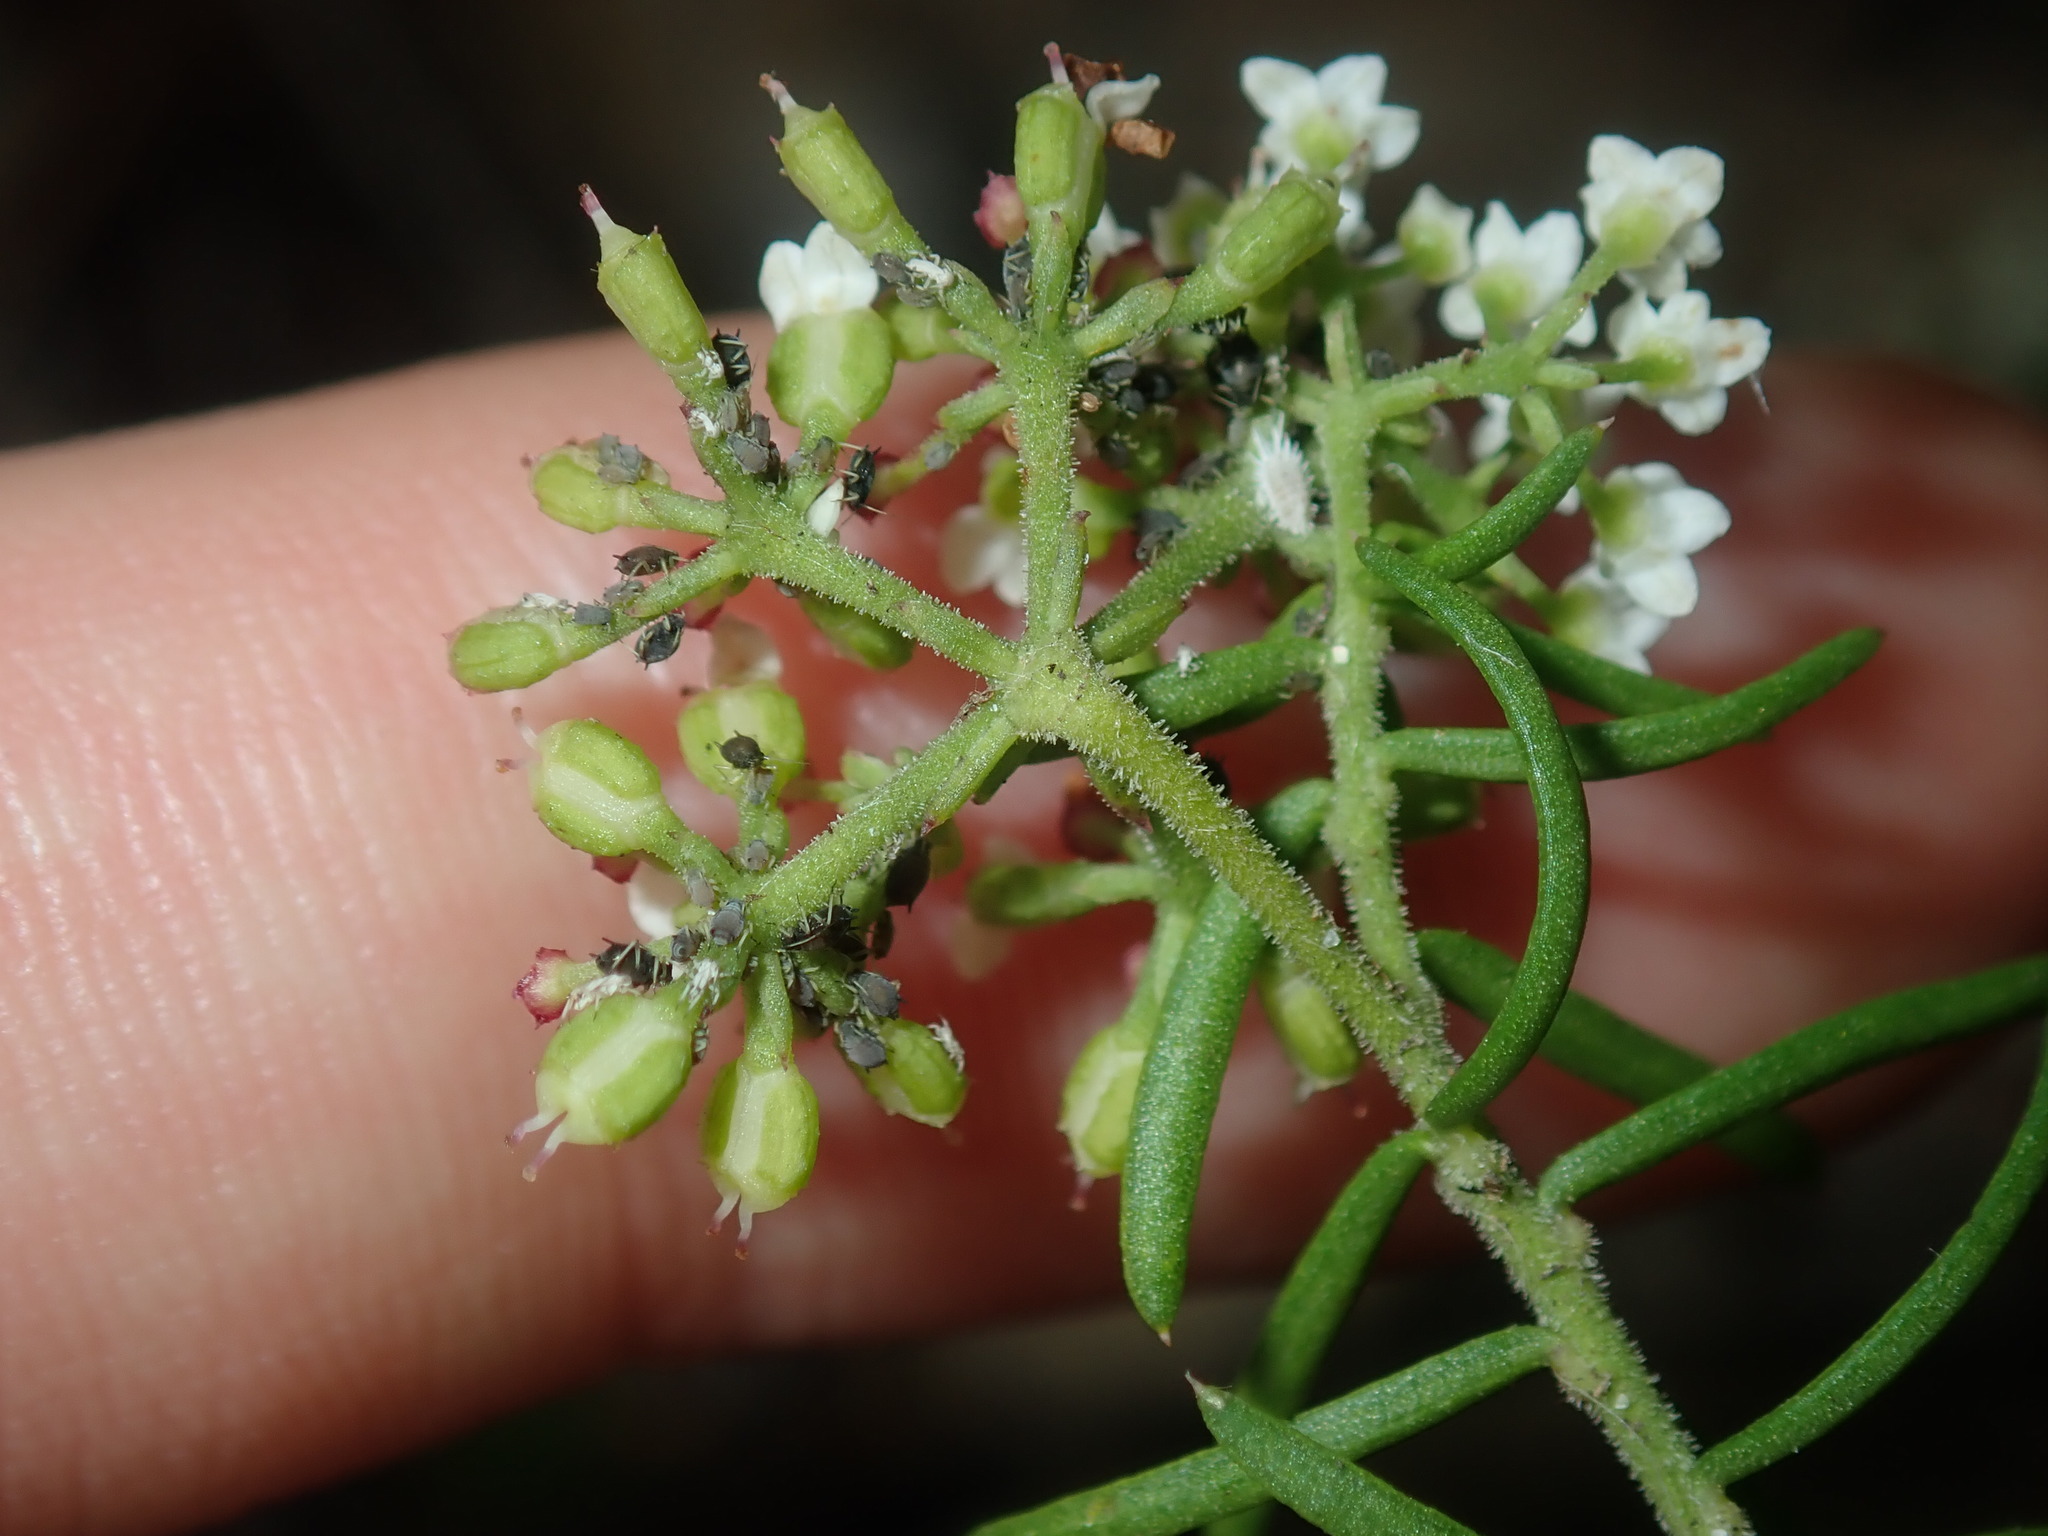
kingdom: Plantae
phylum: Tracheophyta
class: Magnoliopsida
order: Apiales
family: Apiaceae
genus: Platysace
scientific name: Platysace ericoides
